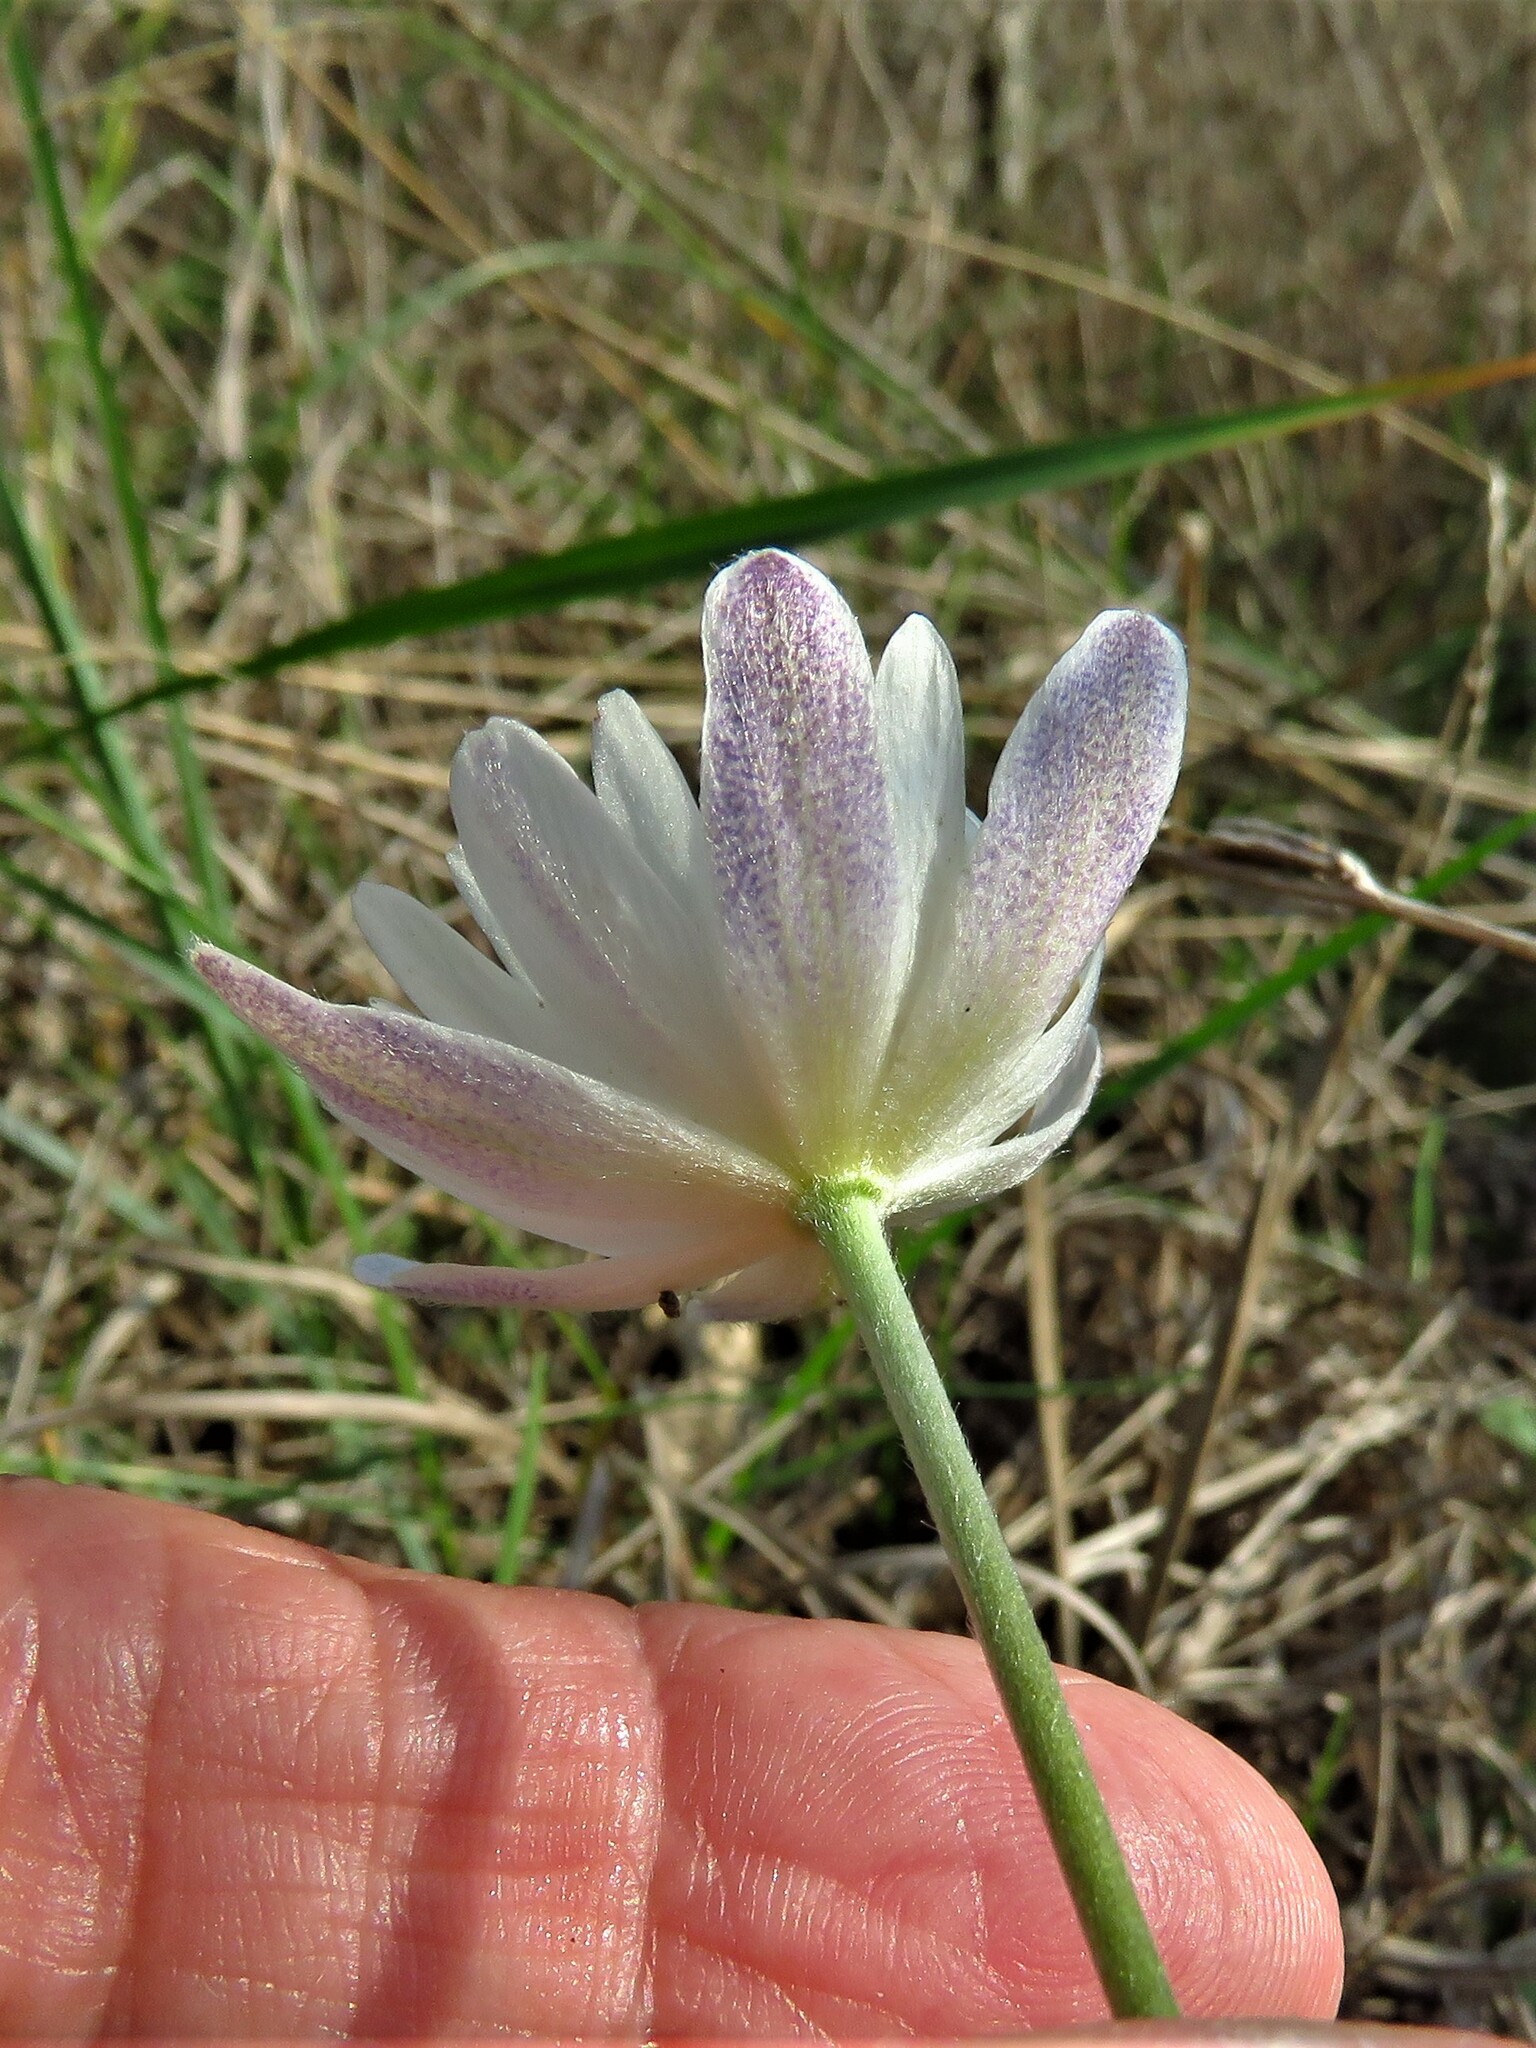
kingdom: Plantae
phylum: Tracheophyta
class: Magnoliopsida
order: Ranunculales
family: Ranunculaceae
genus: Anemone
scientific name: Anemone caroliniana
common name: Carolina anemone
